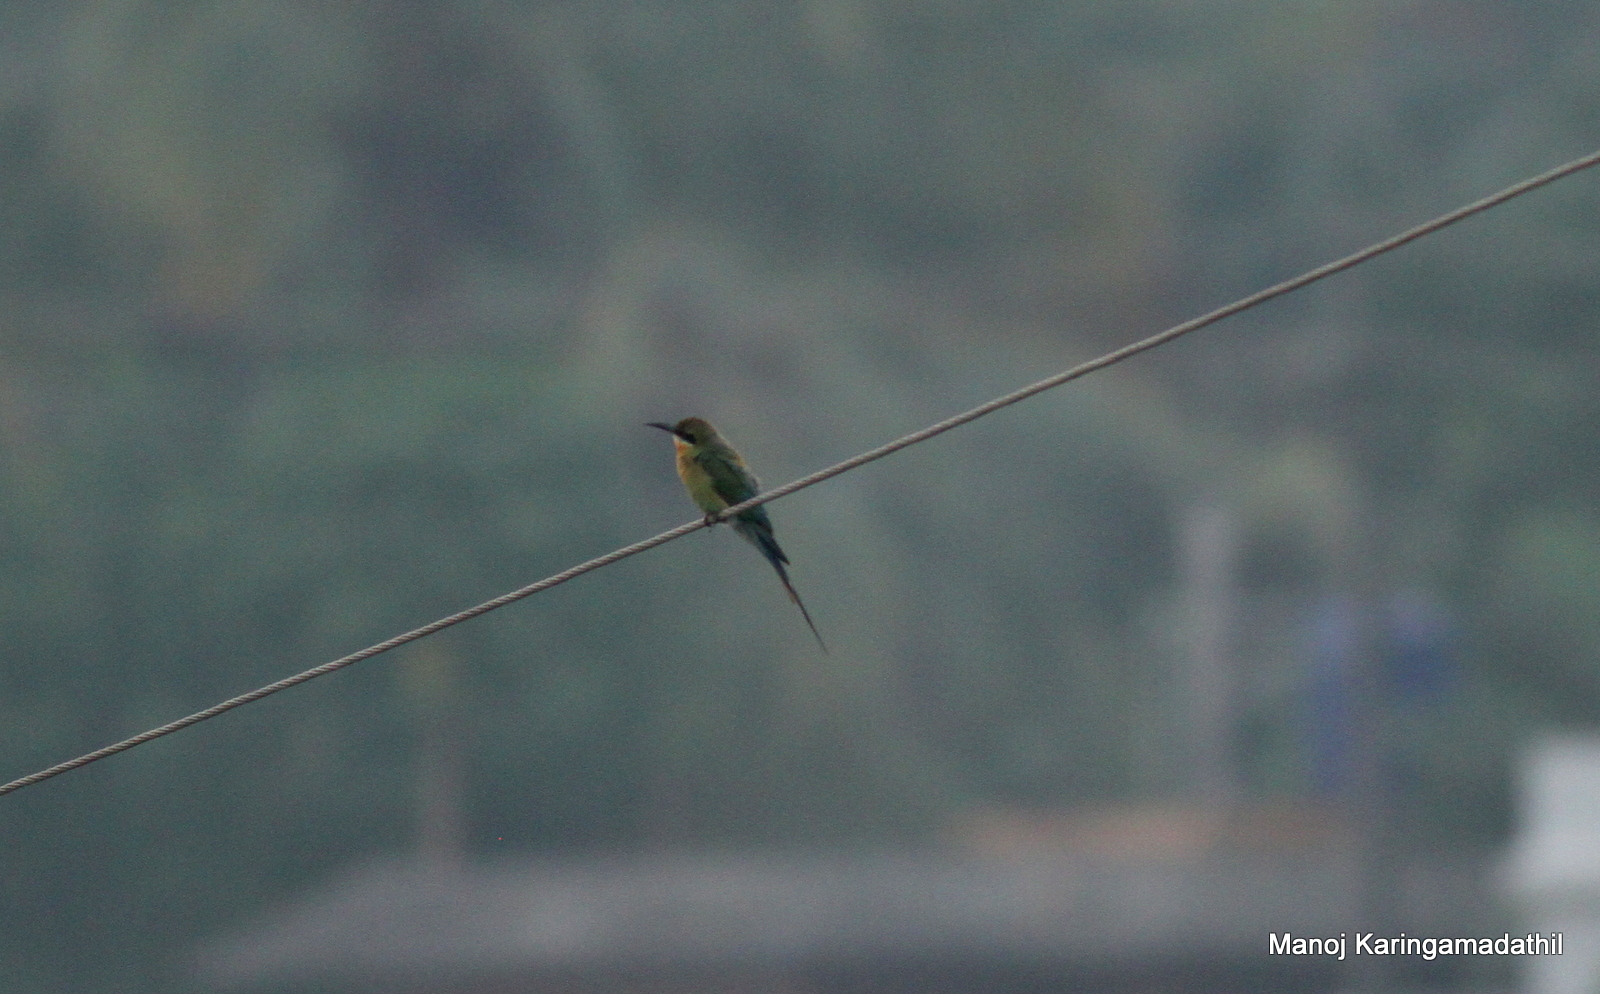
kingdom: Animalia
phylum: Chordata
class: Aves
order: Coraciiformes
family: Meropidae
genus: Merops
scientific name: Merops philippinus
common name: Blue-tailed bee-eater
